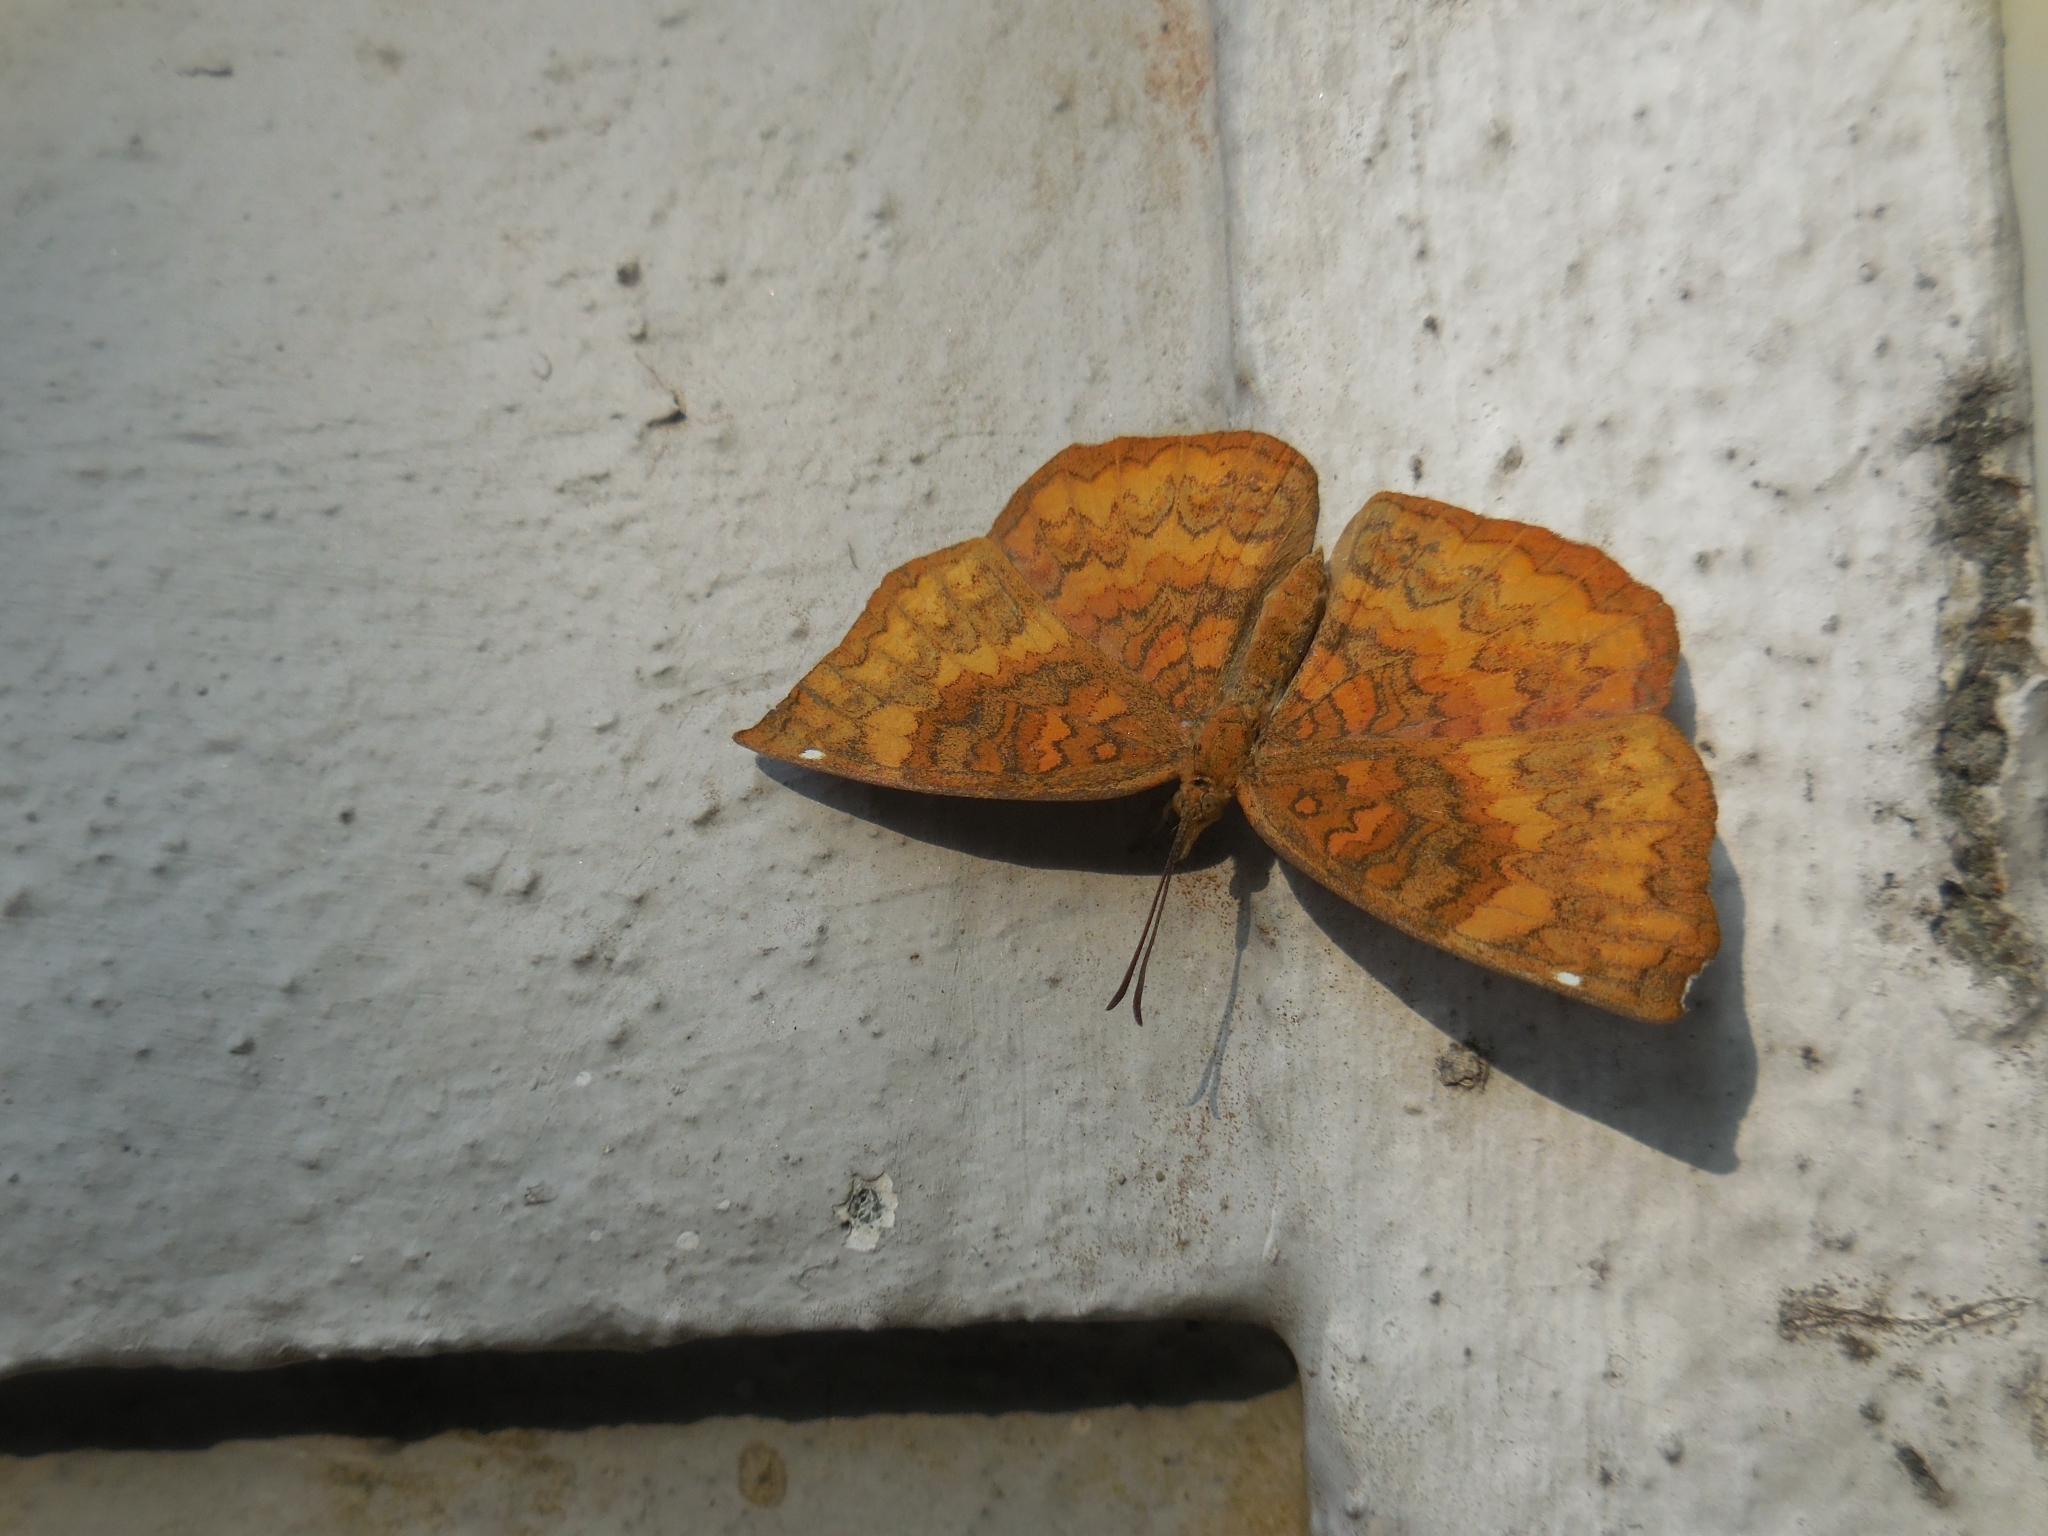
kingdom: Animalia
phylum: Arthropoda
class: Insecta
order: Lepidoptera
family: Nymphalidae
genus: Ariadne
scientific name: Ariadne merione
